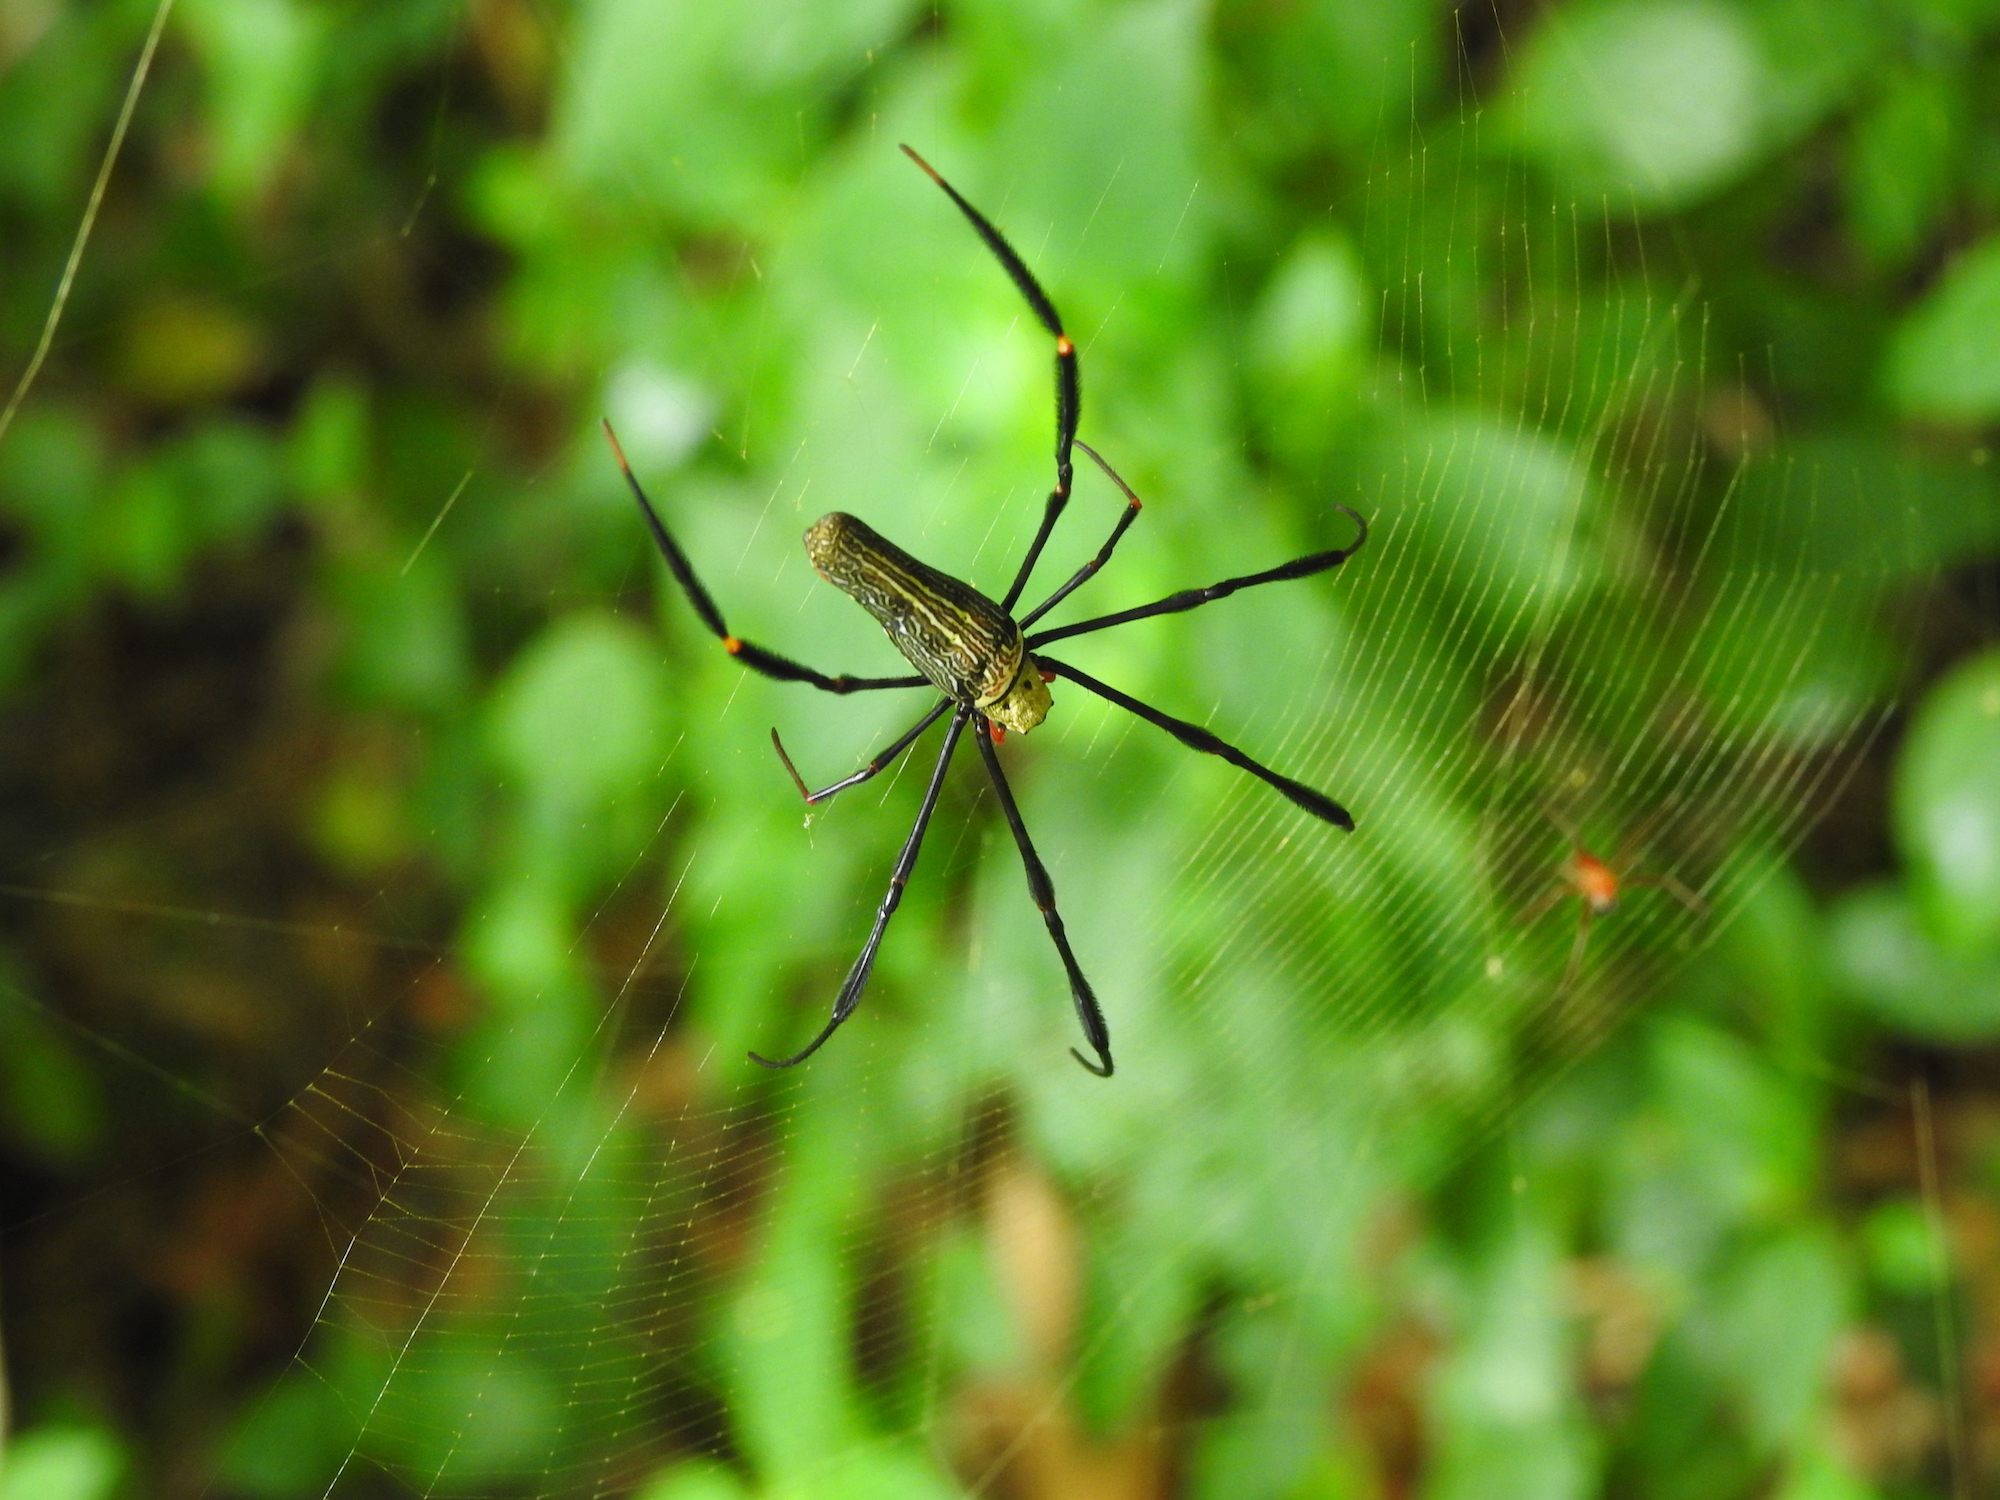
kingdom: Animalia
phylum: Arthropoda
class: Arachnida
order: Araneae
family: Araneidae
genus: Nephila
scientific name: Nephila pilipes
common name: Giant golden orb weaver
